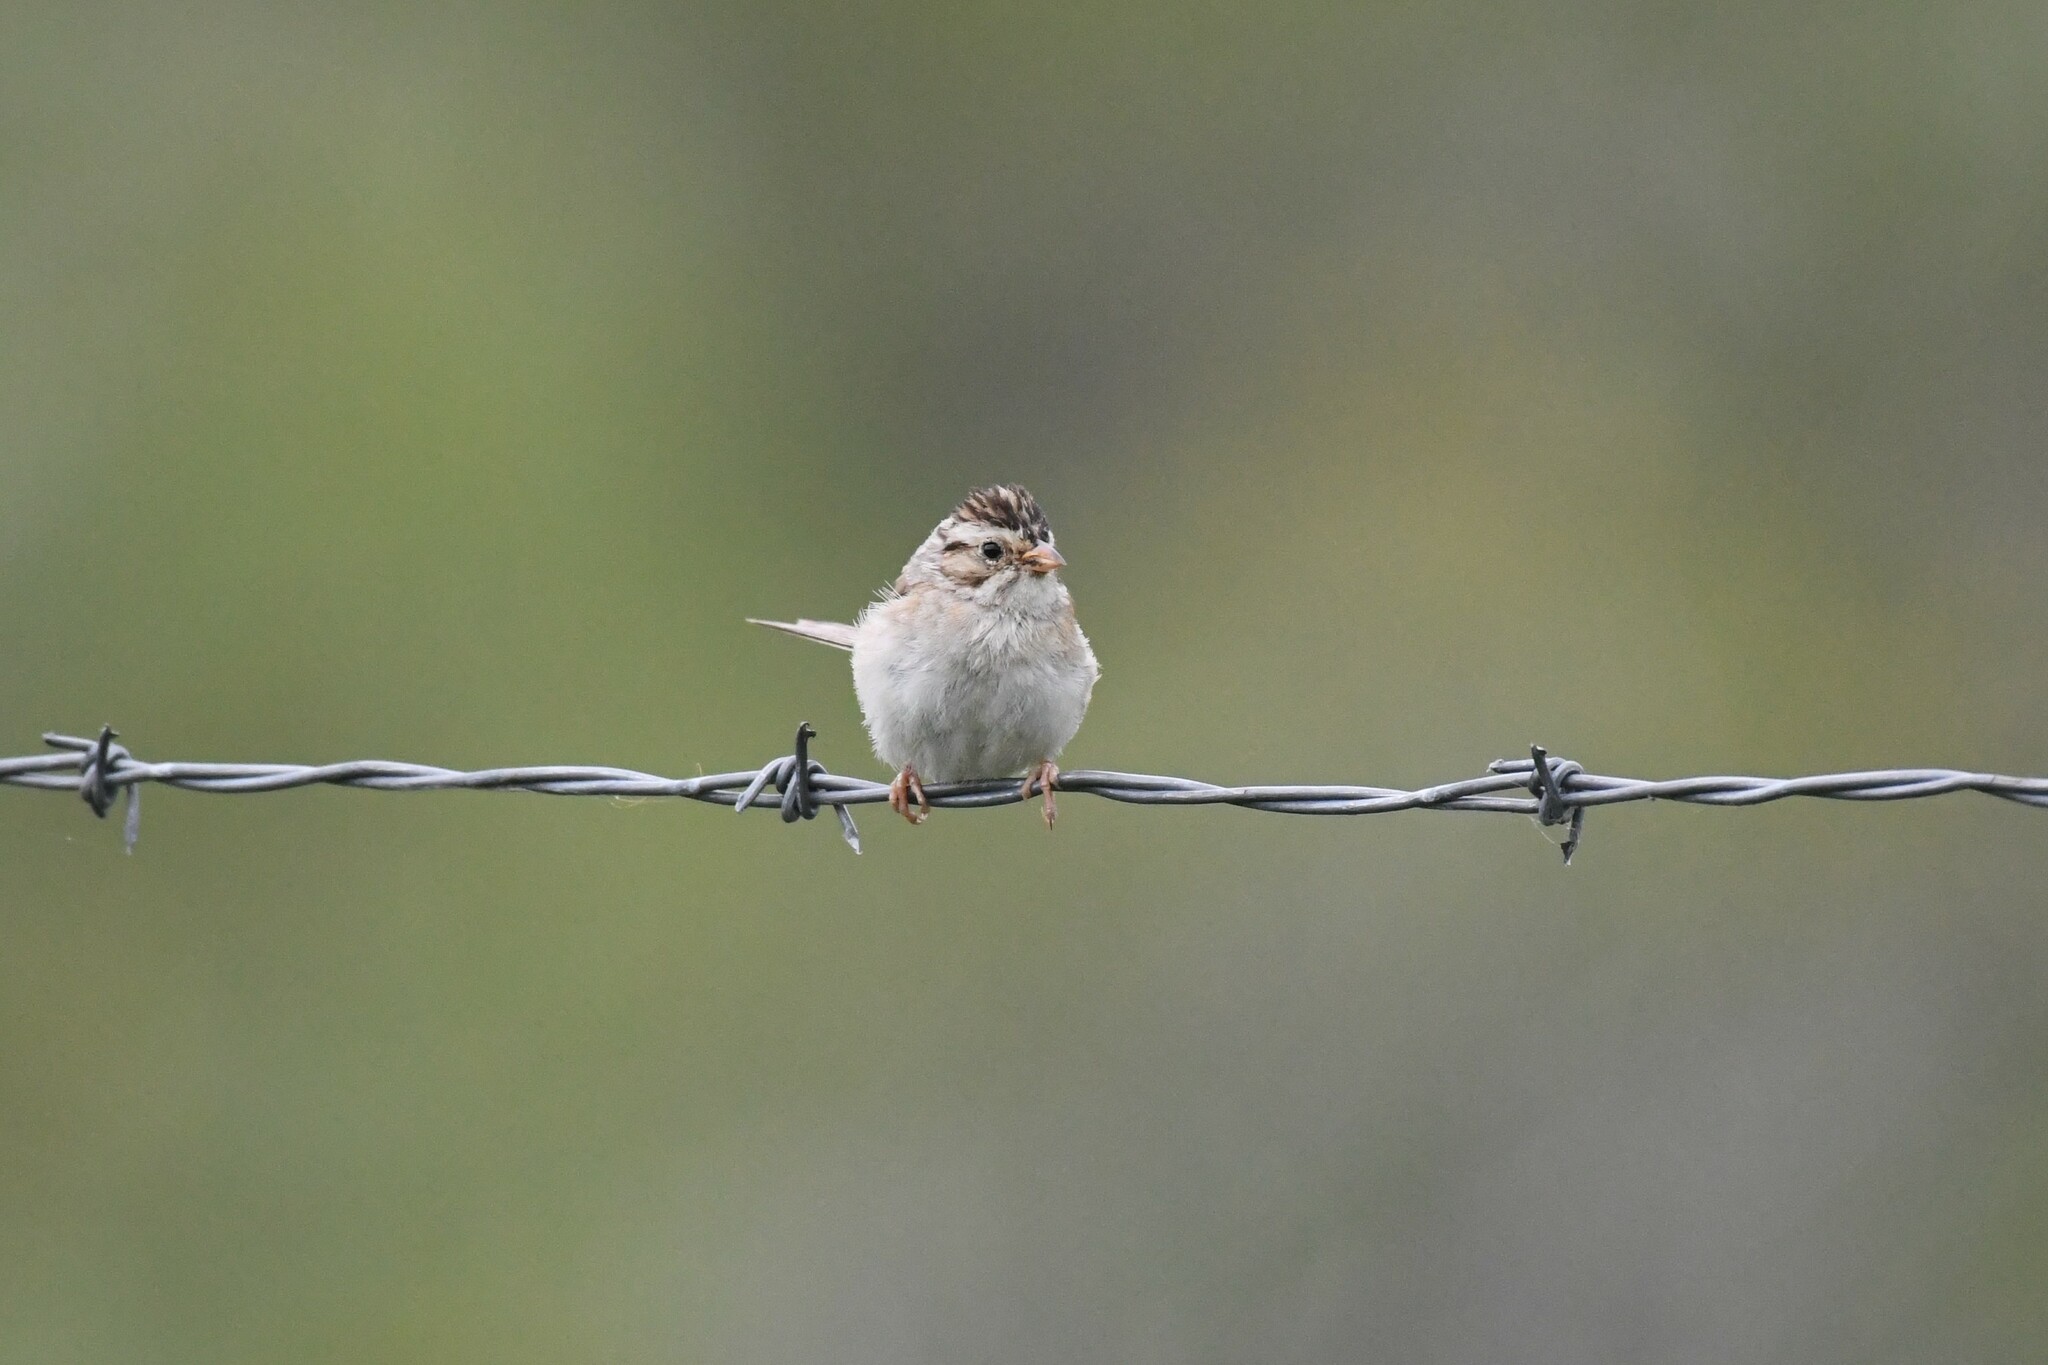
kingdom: Animalia
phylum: Chordata
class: Aves
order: Passeriformes
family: Passerellidae
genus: Spizella
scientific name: Spizella pallida
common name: Clay-colored sparrow
